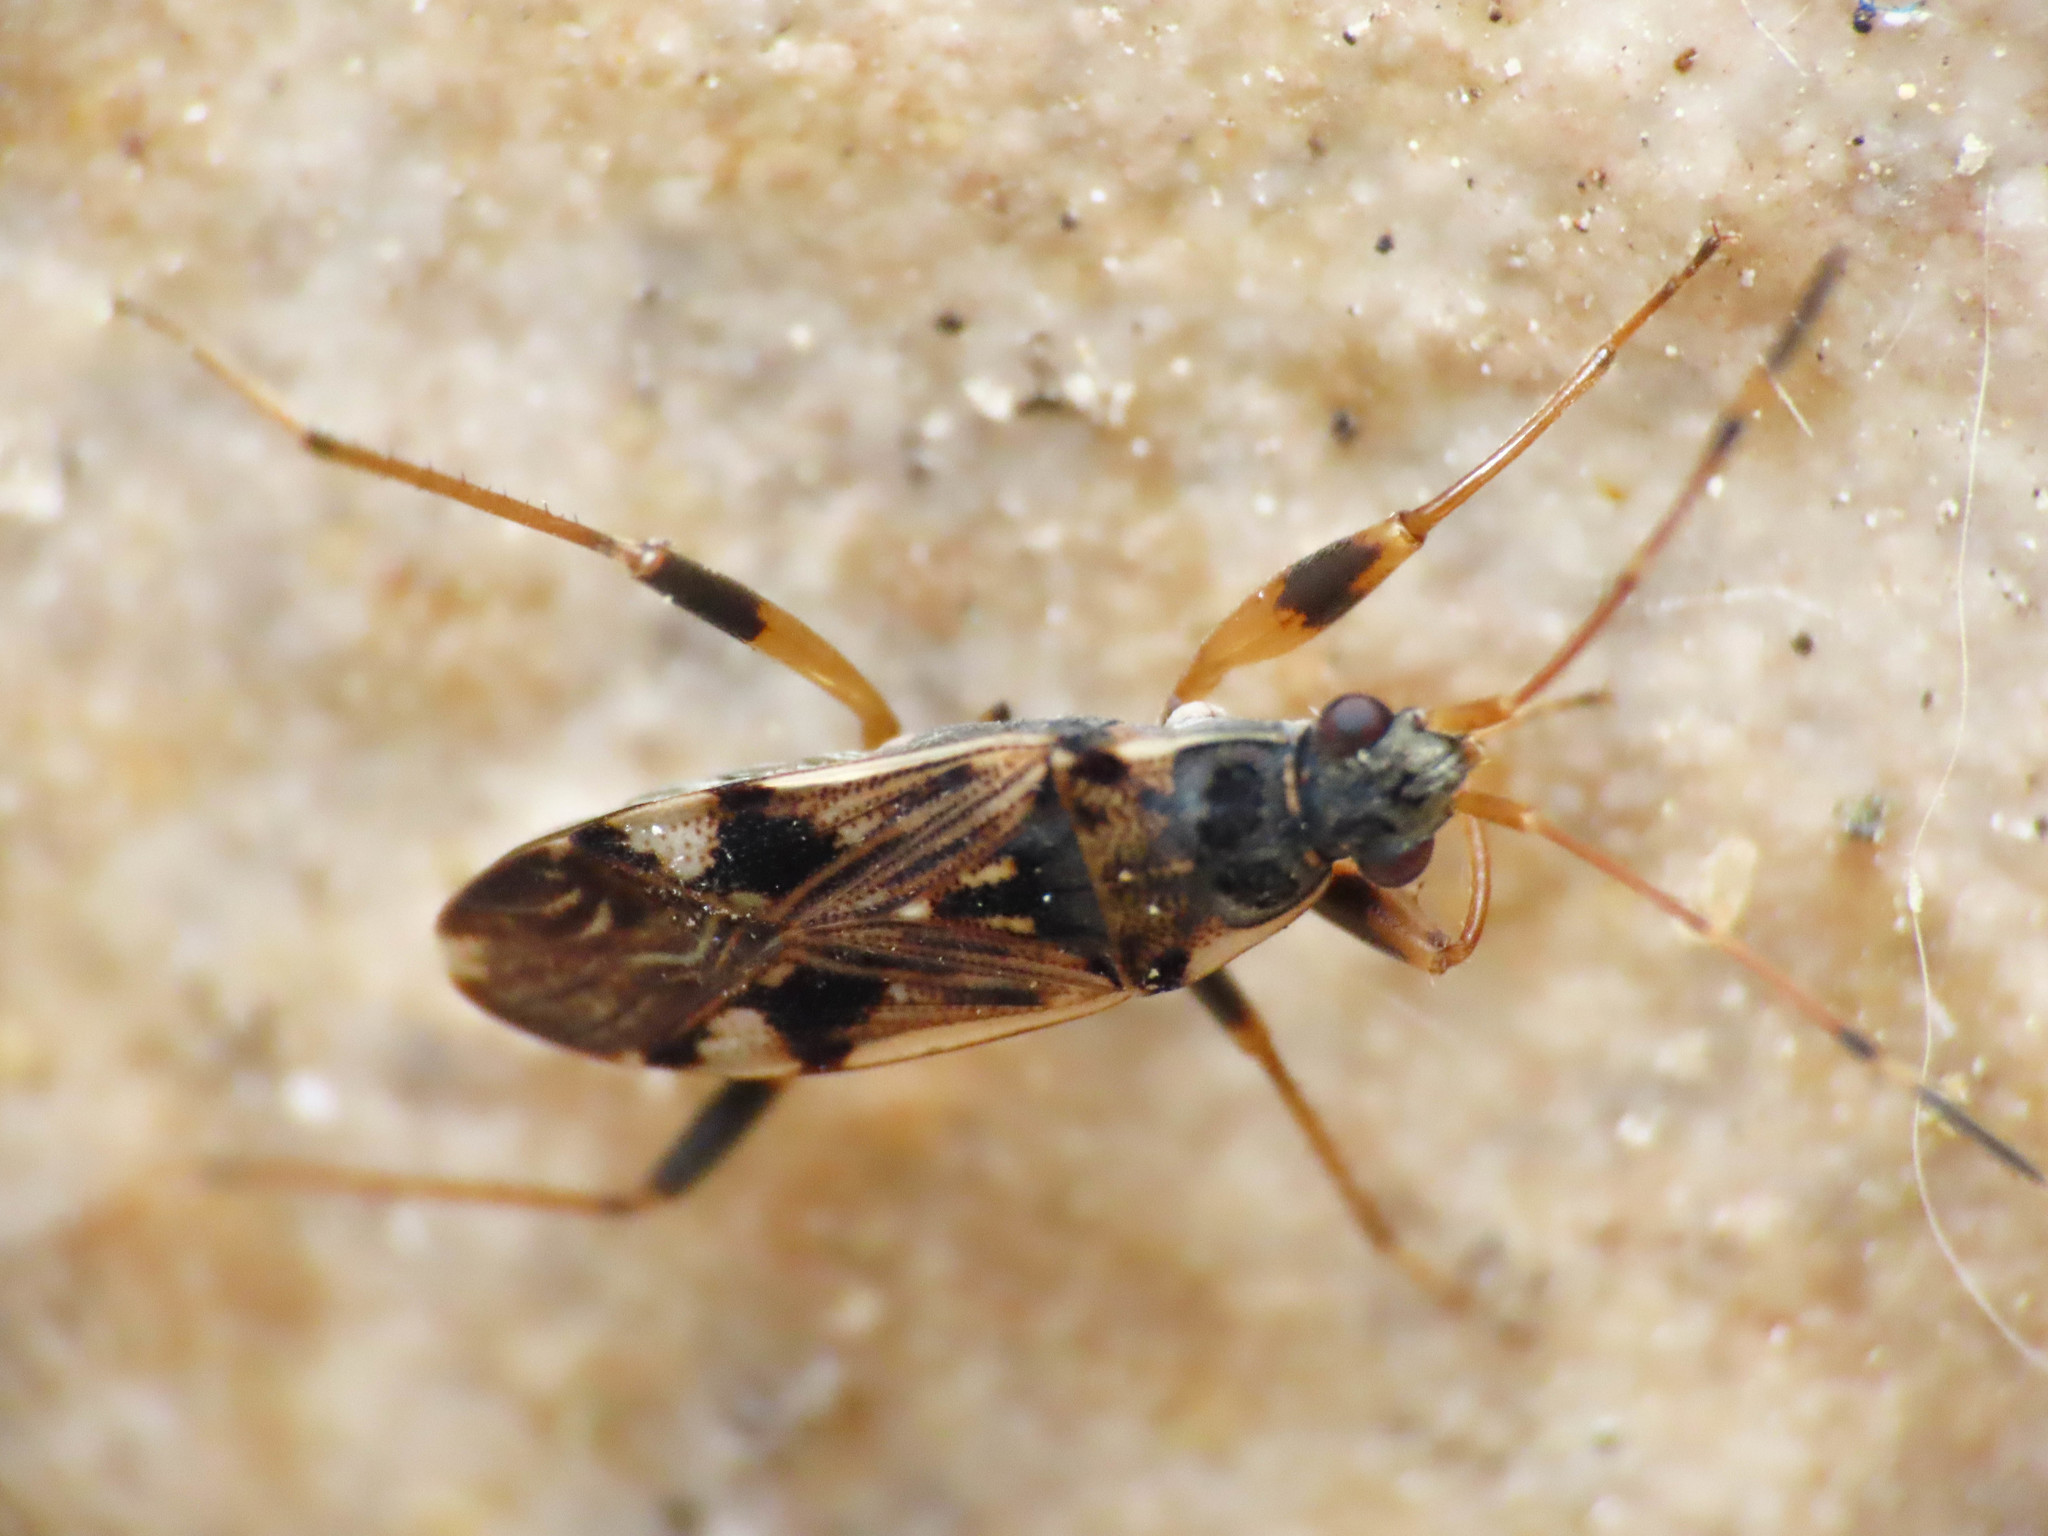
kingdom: Animalia
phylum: Arthropoda
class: Insecta
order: Hemiptera
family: Rhyparochromidae
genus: Beosus
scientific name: Beosus maritimus
